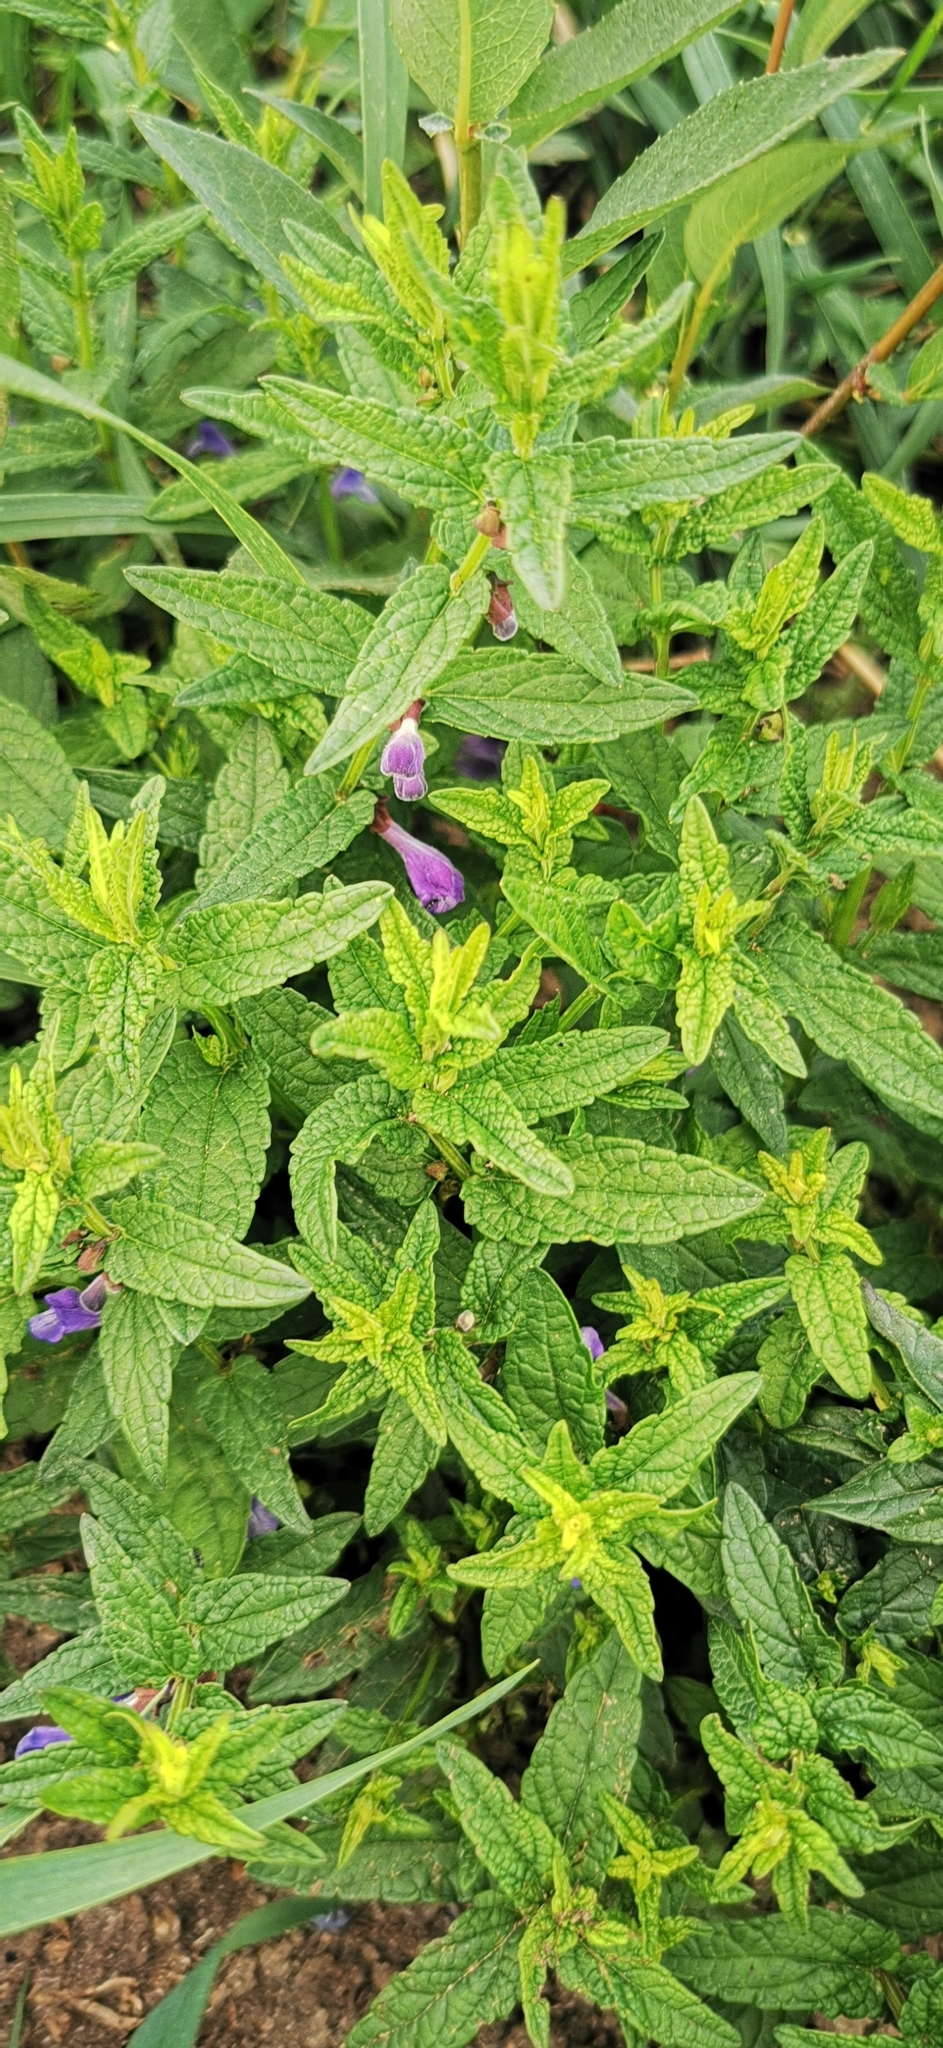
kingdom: Plantae
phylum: Tracheophyta
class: Magnoliopsida
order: Lamiales
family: Lamiaceae
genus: Scutellaria
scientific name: Scutellaria galericulata
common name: Skullcap
